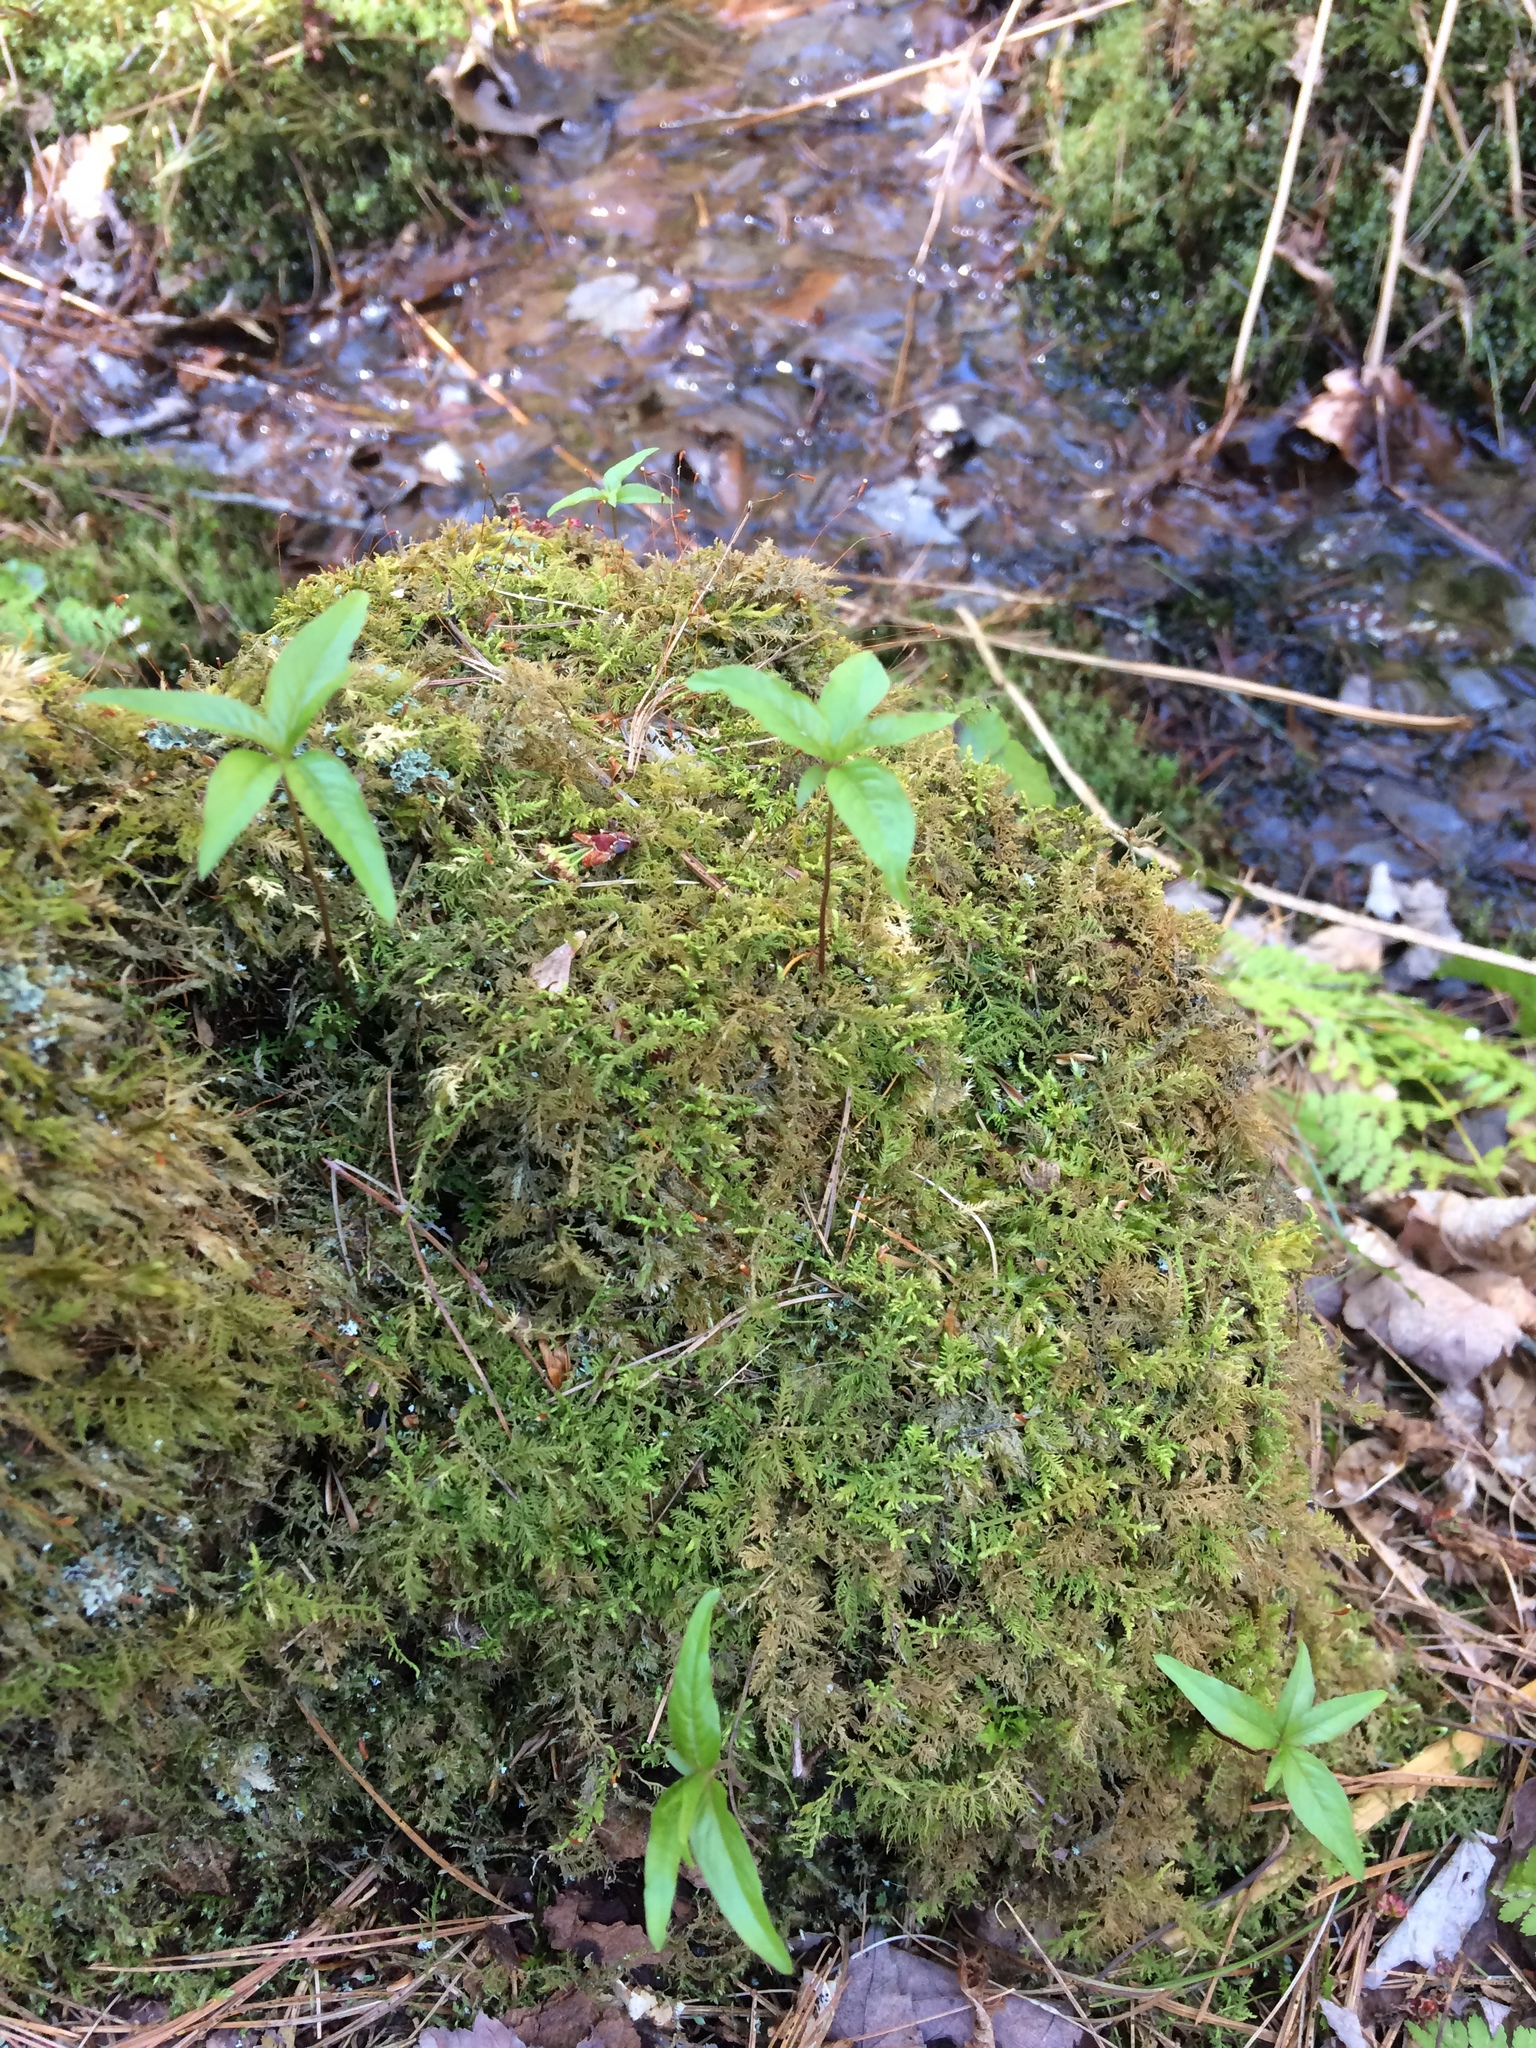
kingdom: Plantae
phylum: Tracheophyta
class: Magnoliopsida
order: Ericales
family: Primulaceae
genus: Lysimachia
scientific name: Lysimachia borealis
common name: American starflower
